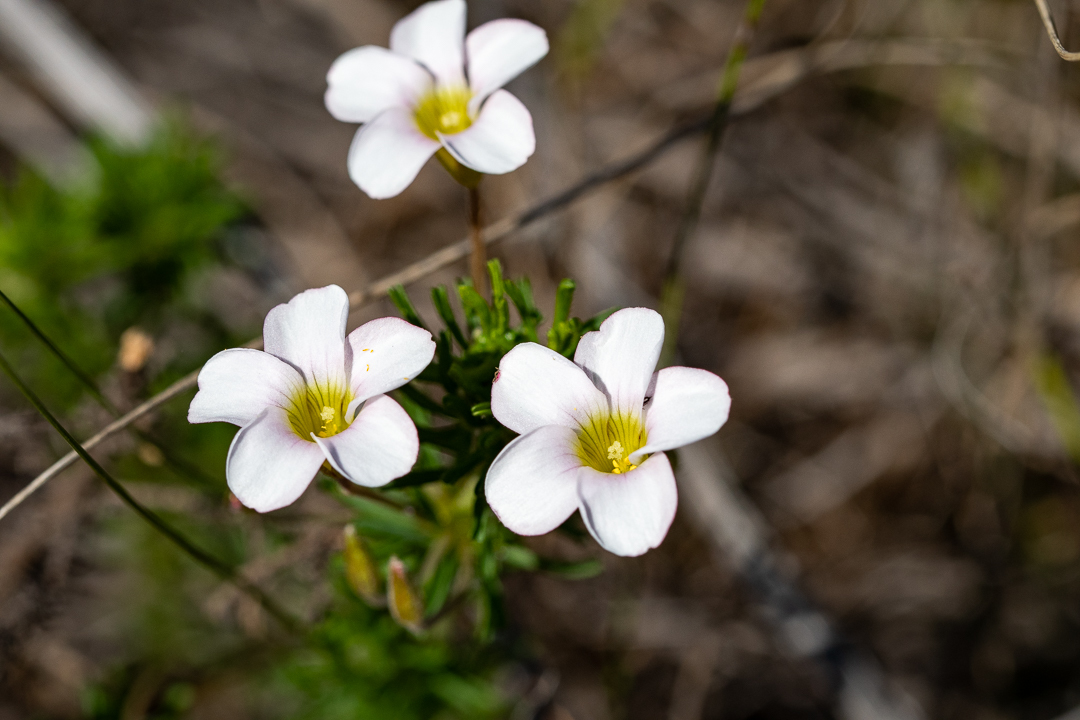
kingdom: Plantae
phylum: Tracheophyta
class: Magnoliopsida
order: Oxalidales
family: Oxalidaceae
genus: Oxalis
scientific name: Oxalis tenuifolia
